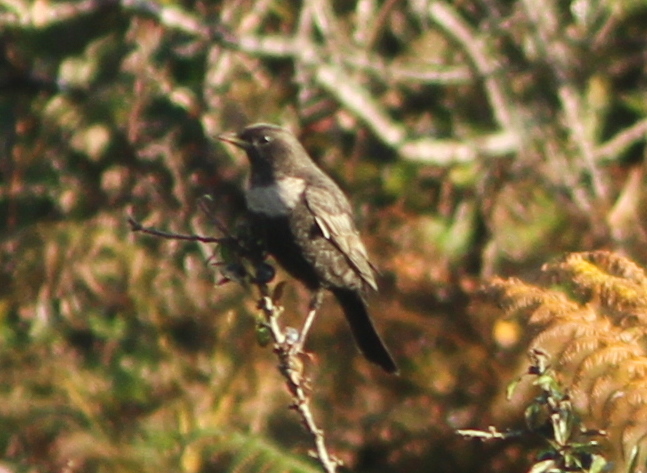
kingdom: Animalia
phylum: Chordata
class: Aves
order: Passeriformes
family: Turdidae
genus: Turdus
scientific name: Turdus torquatus
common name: Ring ouzel
